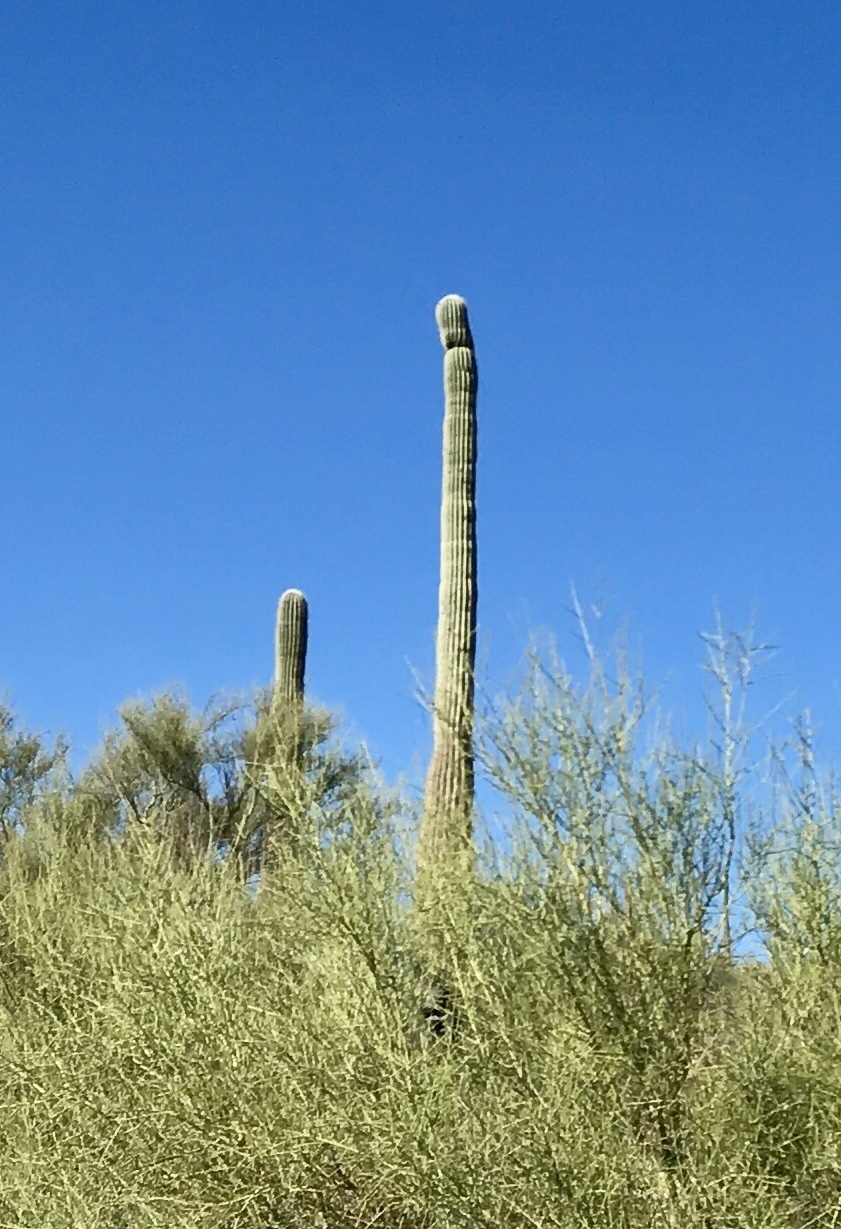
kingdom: Plantae
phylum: Tracheophyta
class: Magnoliopsida
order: Caryophyllales
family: Cactaceae
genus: Carnegiea
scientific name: Carnegiea gigantea
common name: Saguaro
